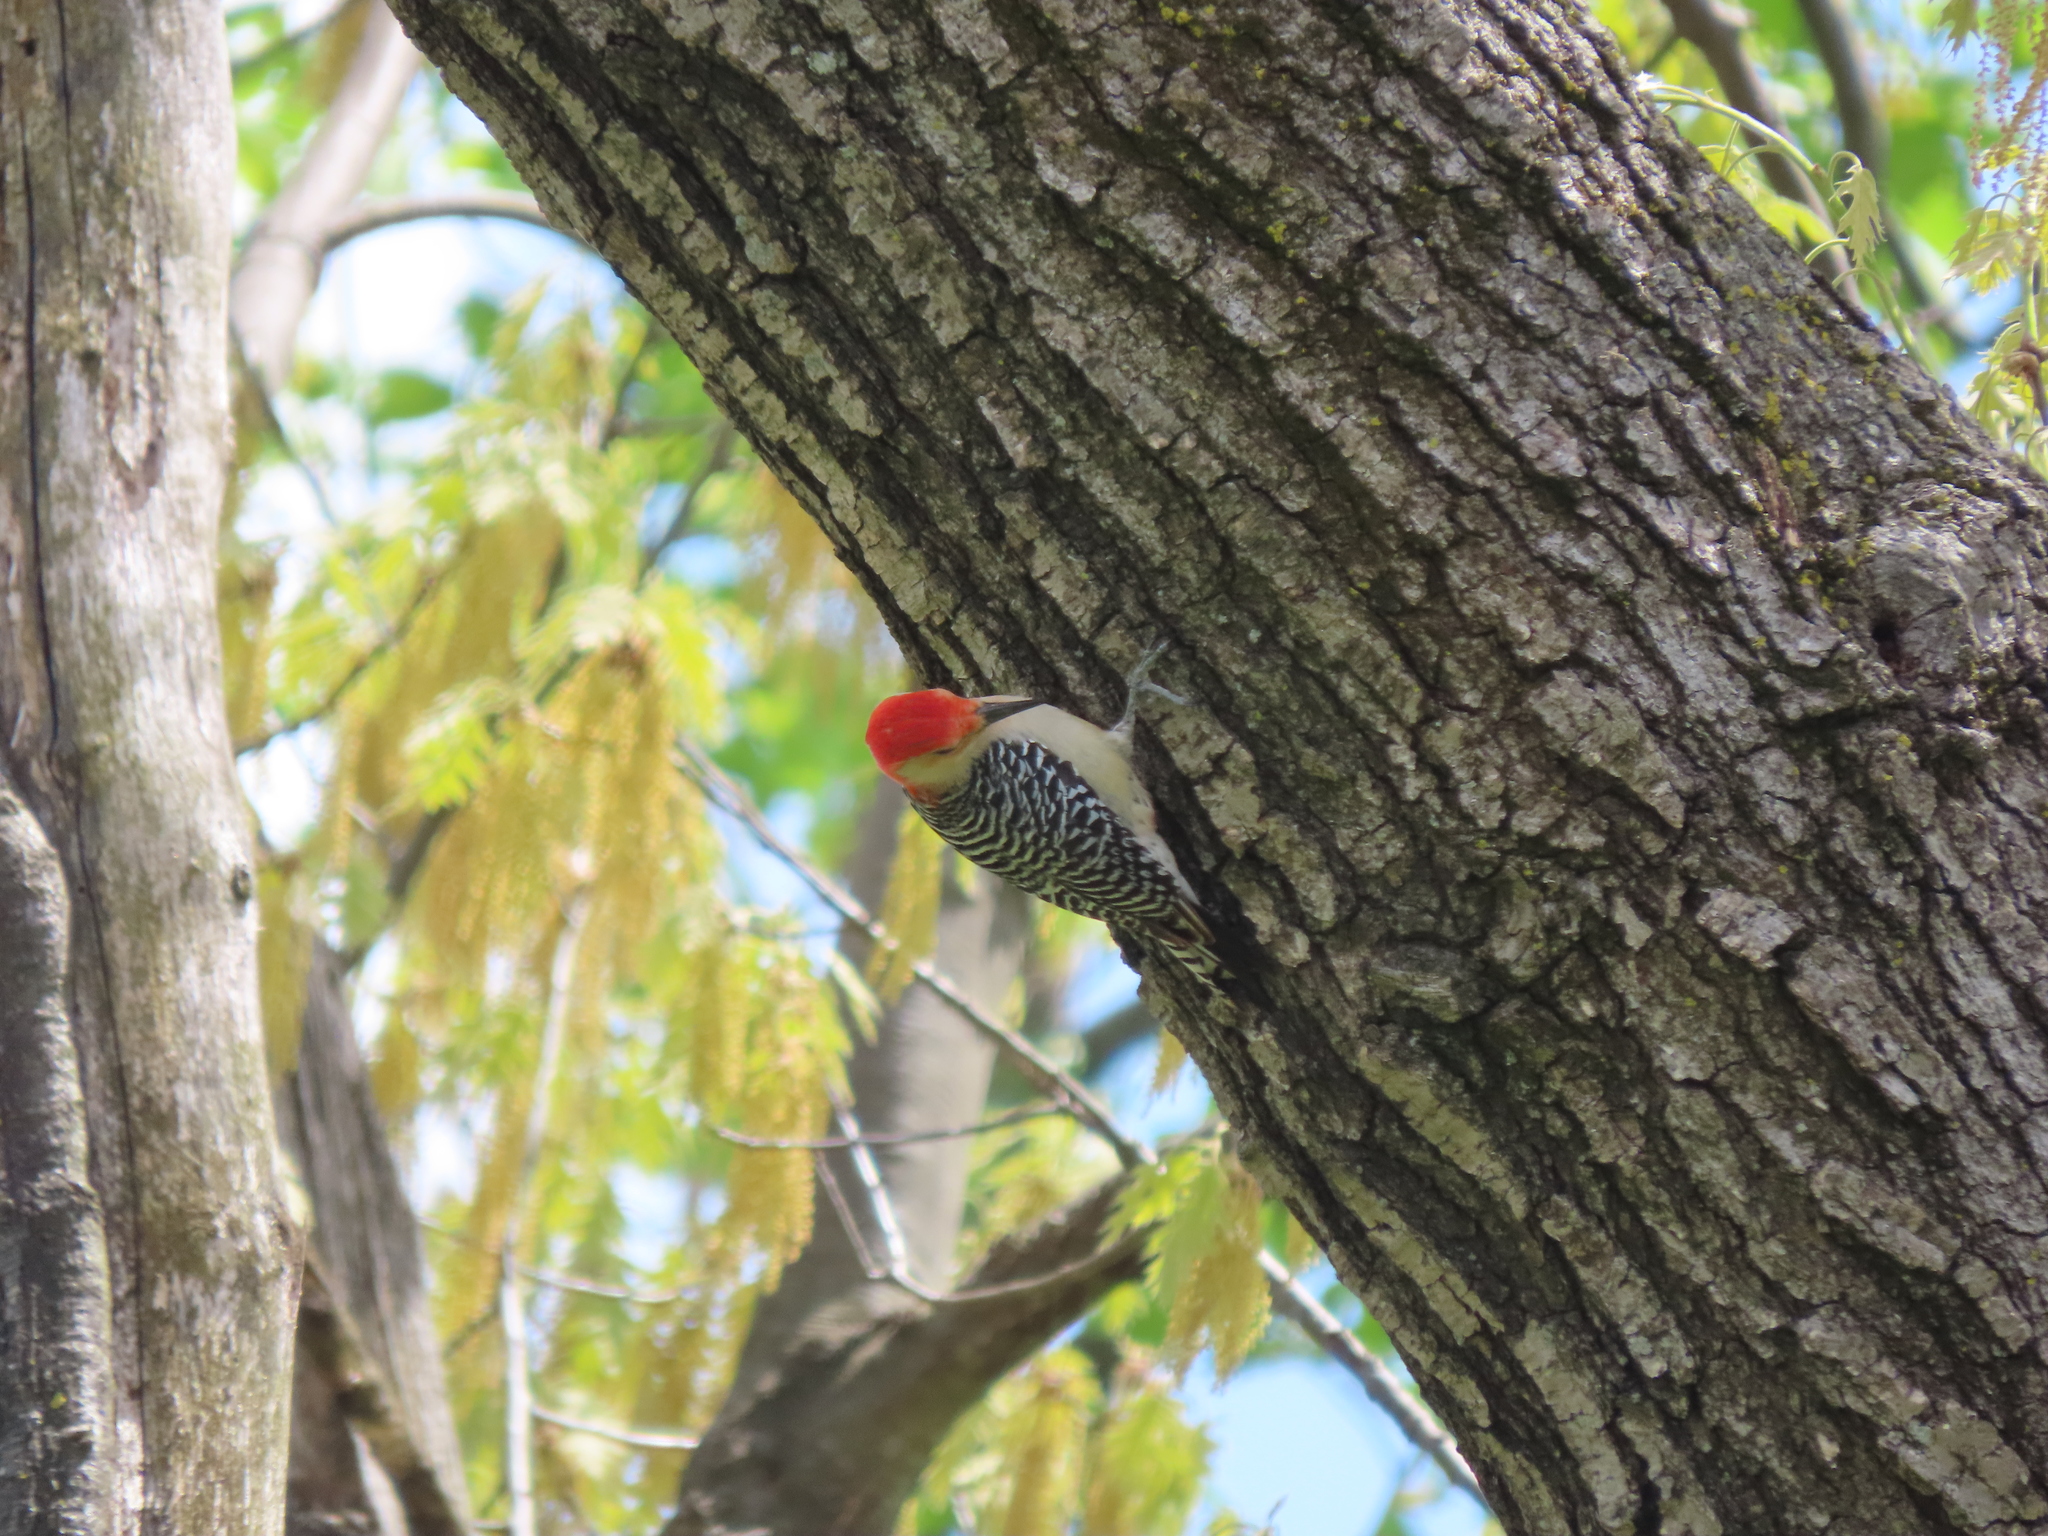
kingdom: Animalia
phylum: Chordata
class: Aves
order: Piciformes
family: Picidae
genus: Melanerpes
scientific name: Melanerpes carolinus
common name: Red-bellied woodpecker
